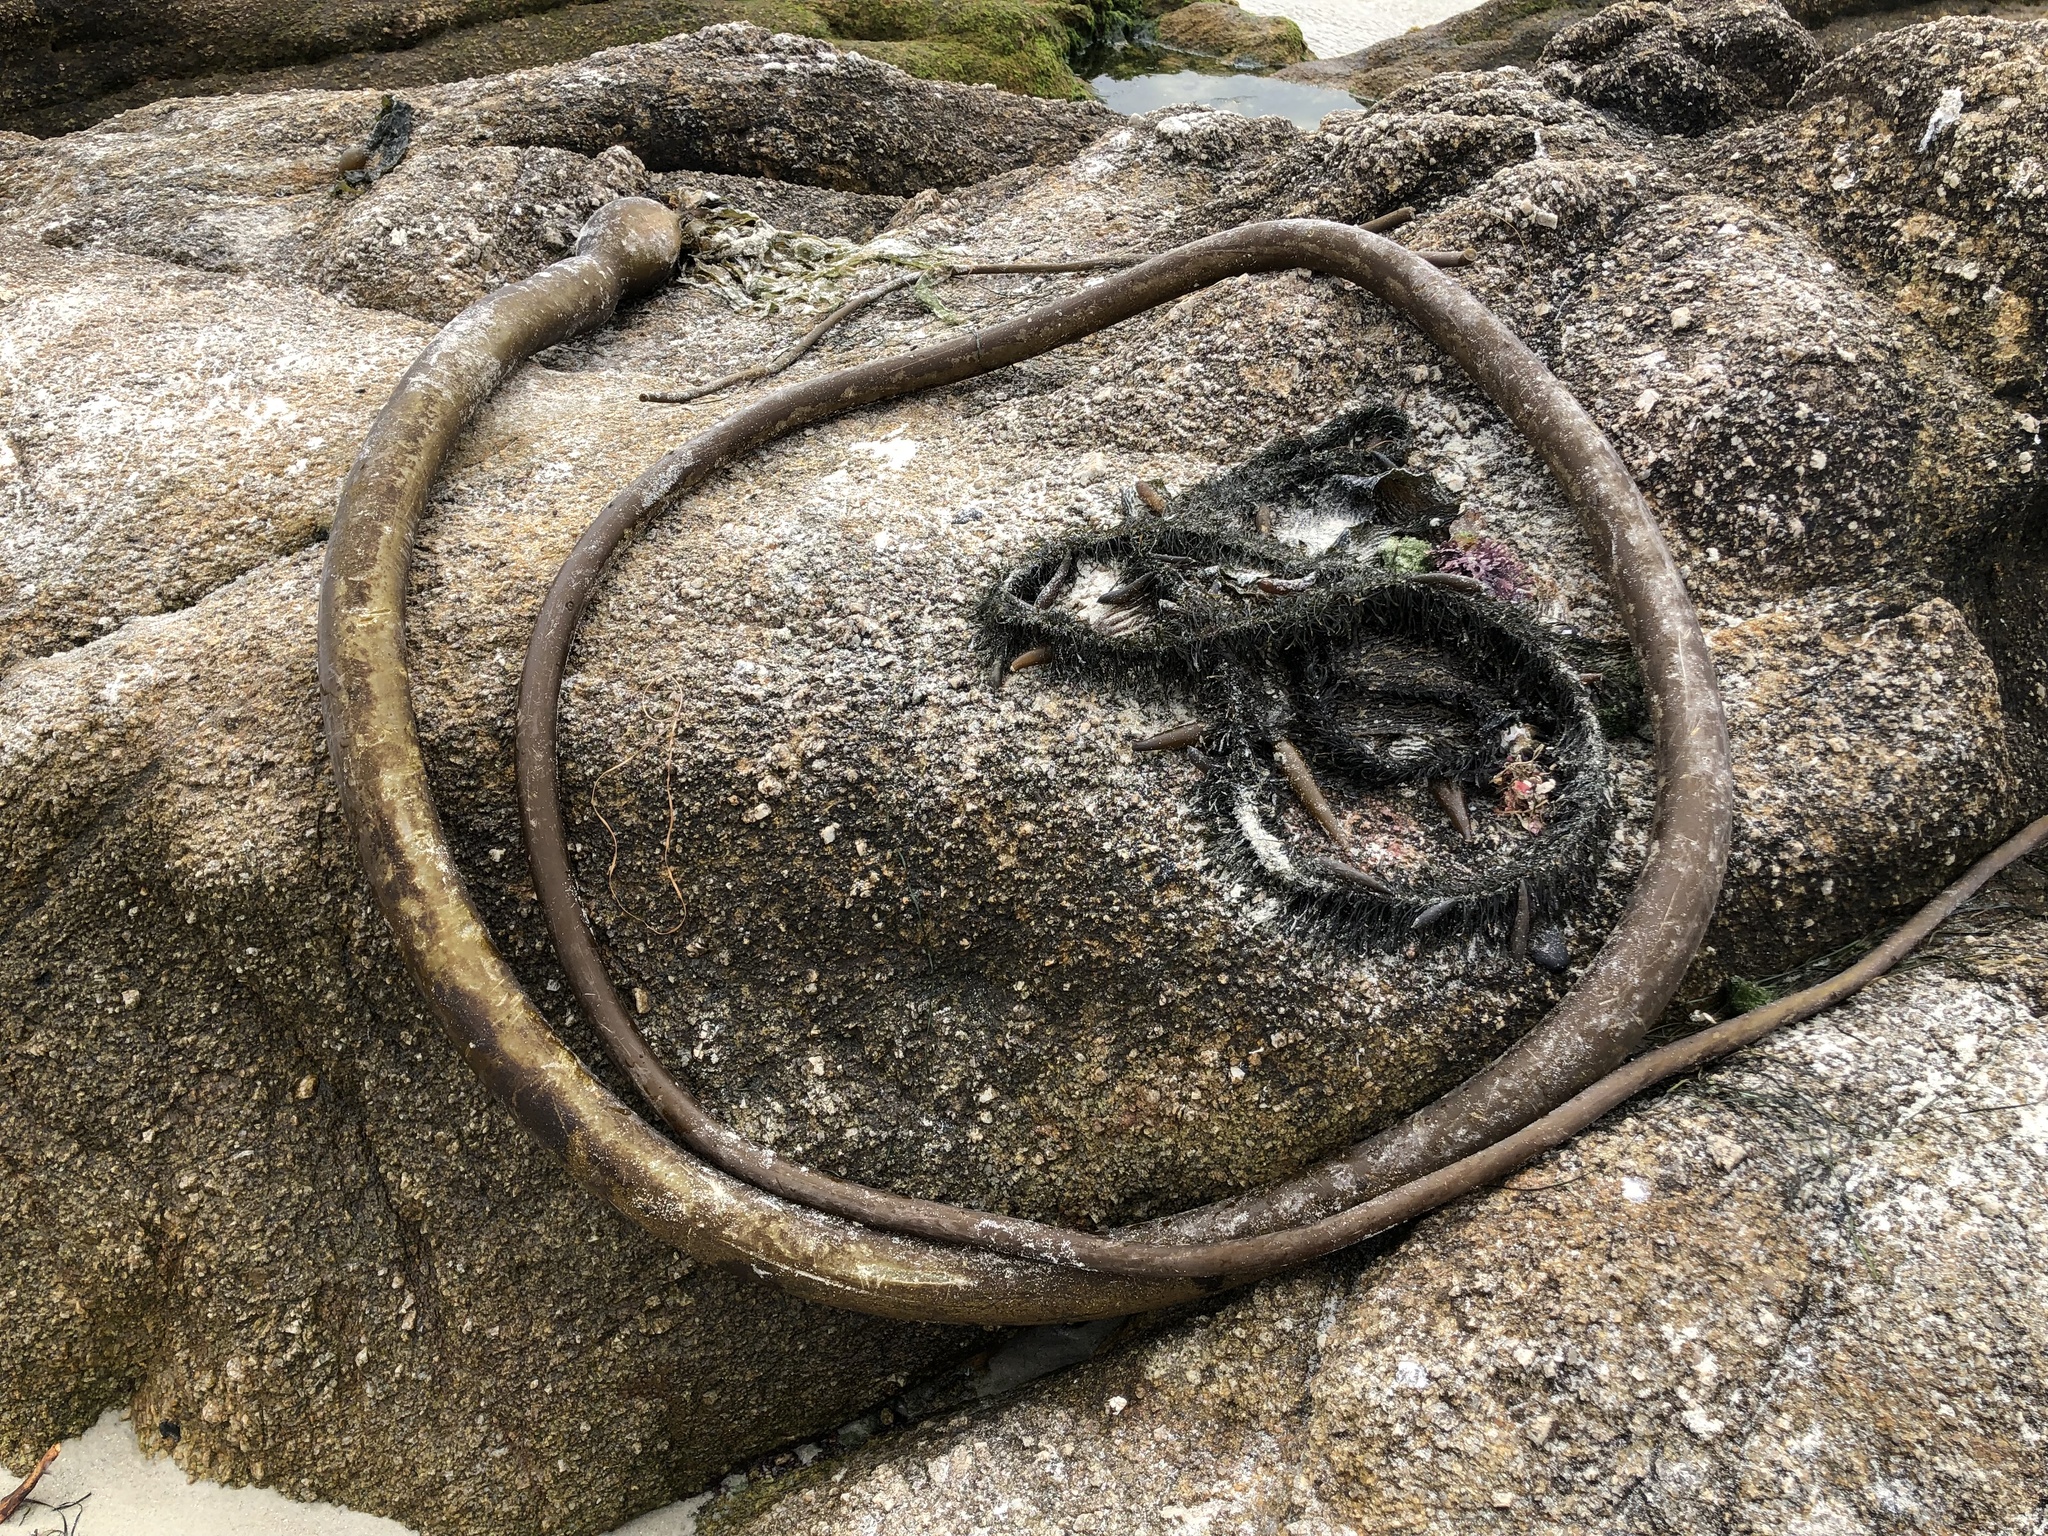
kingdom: Chromista
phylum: Ochrophyta
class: Phaeophyceae
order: Laminariales
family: Laminariaceae
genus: Nereocystis
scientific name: Nereocystis luetkeana
